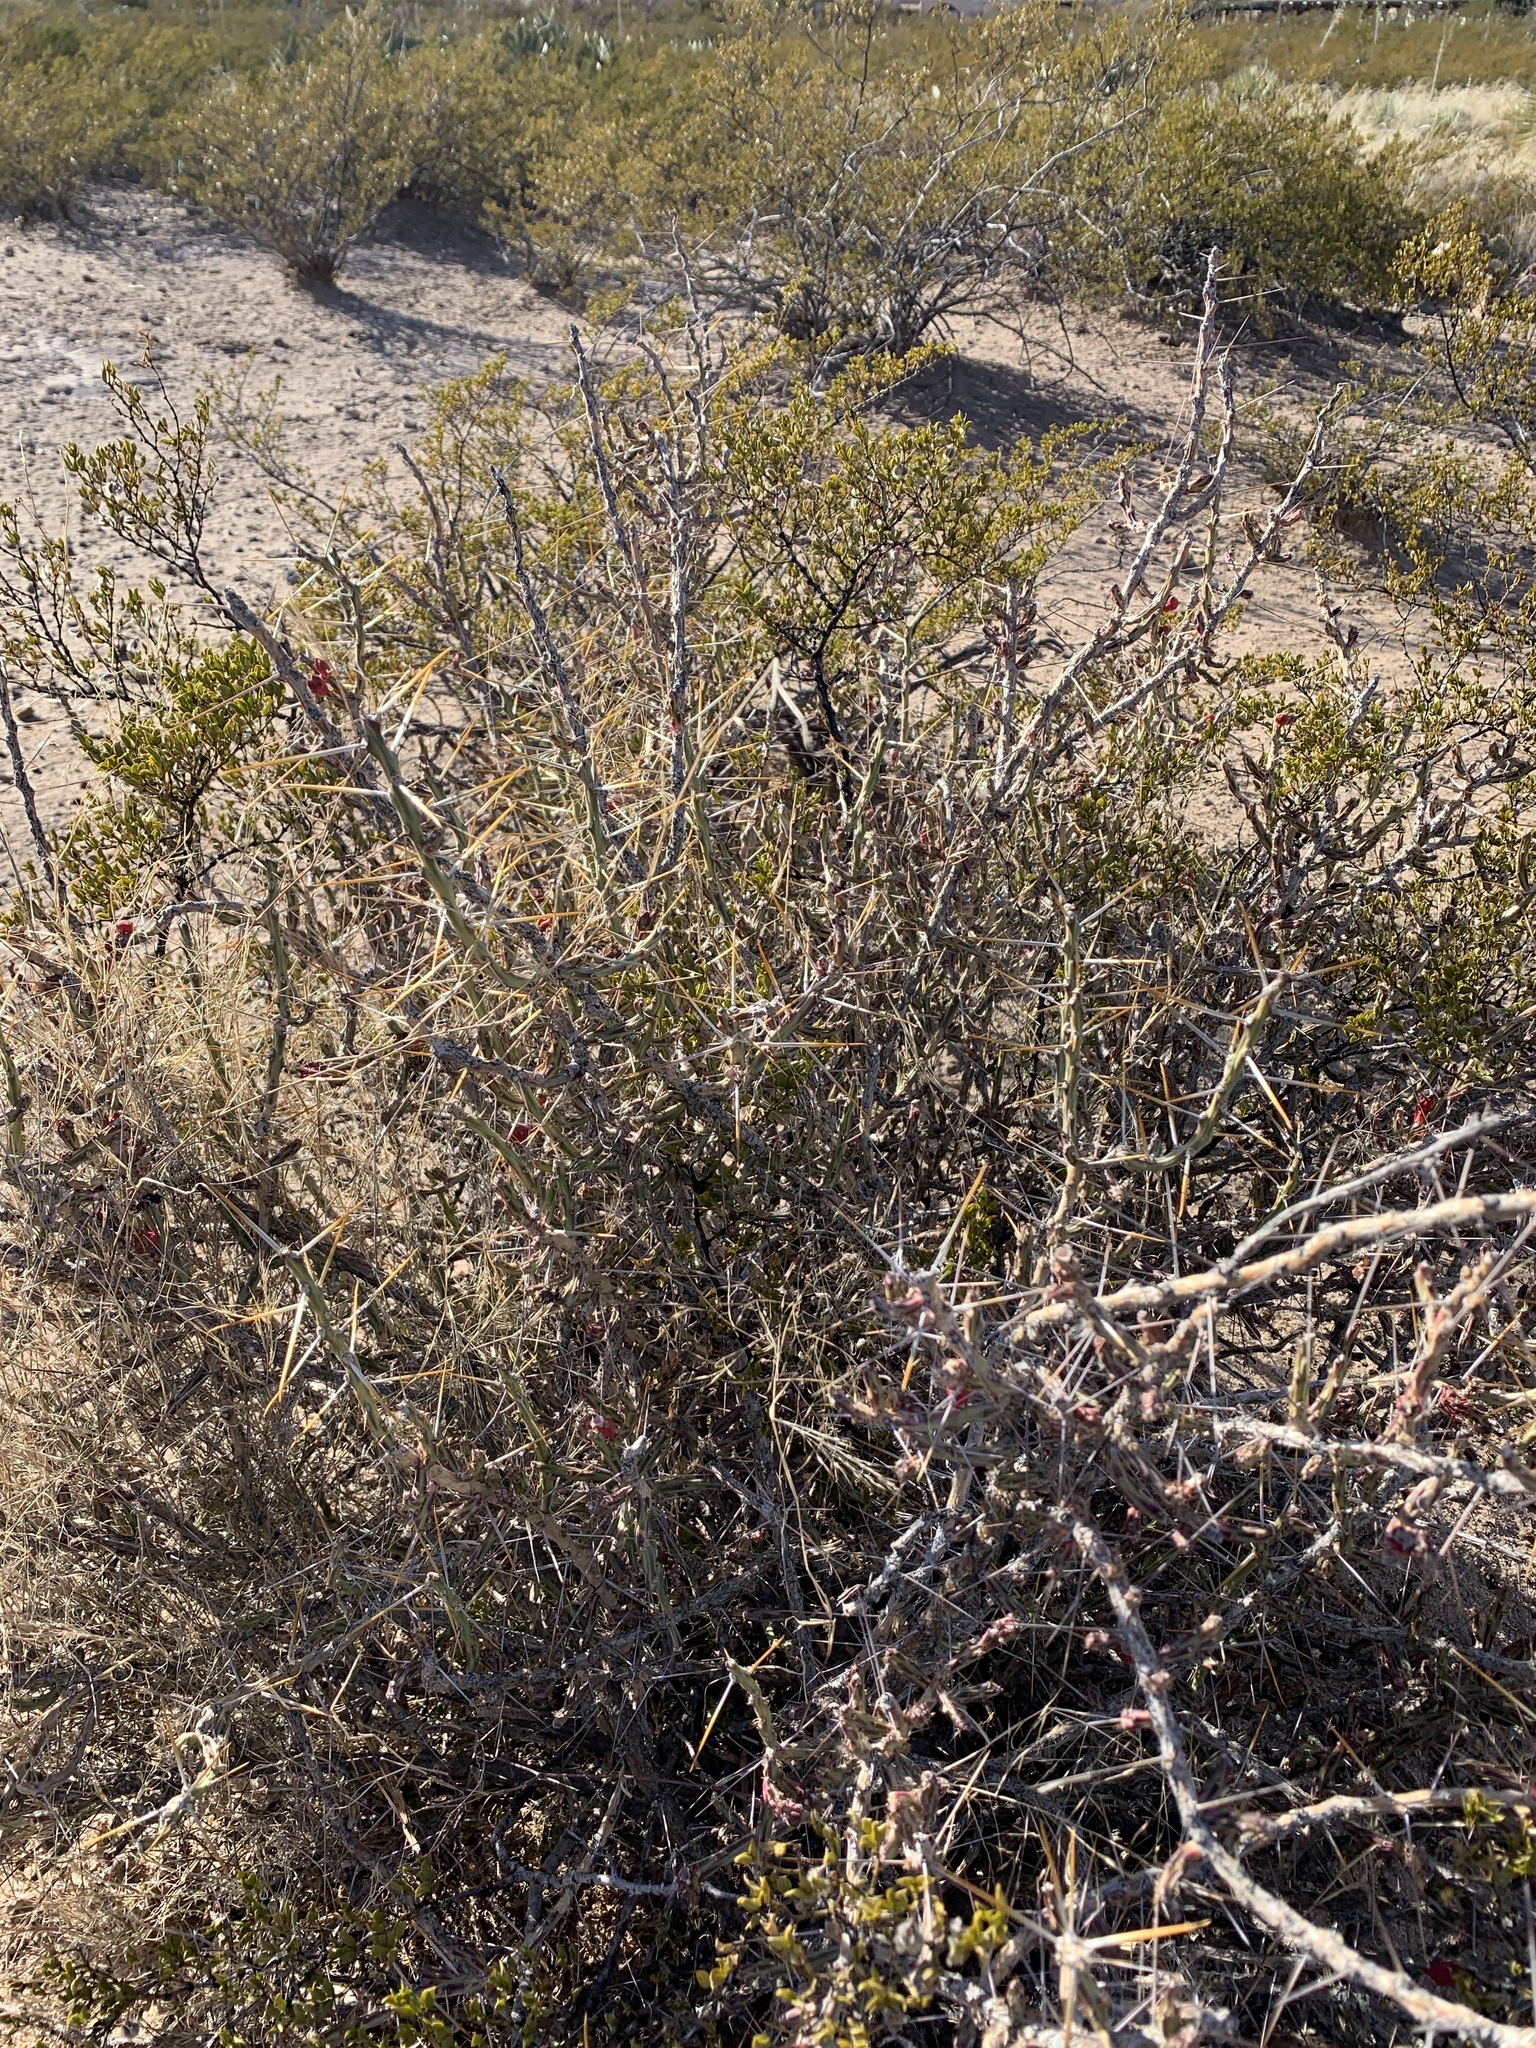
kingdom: Plantae
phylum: Tracheophyta
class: Magnoliopsida
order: Caryophyllales
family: Cactaceae
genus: Cylindropuntia
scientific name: Cylindropuntia leptocaulis
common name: Christmas cactus
